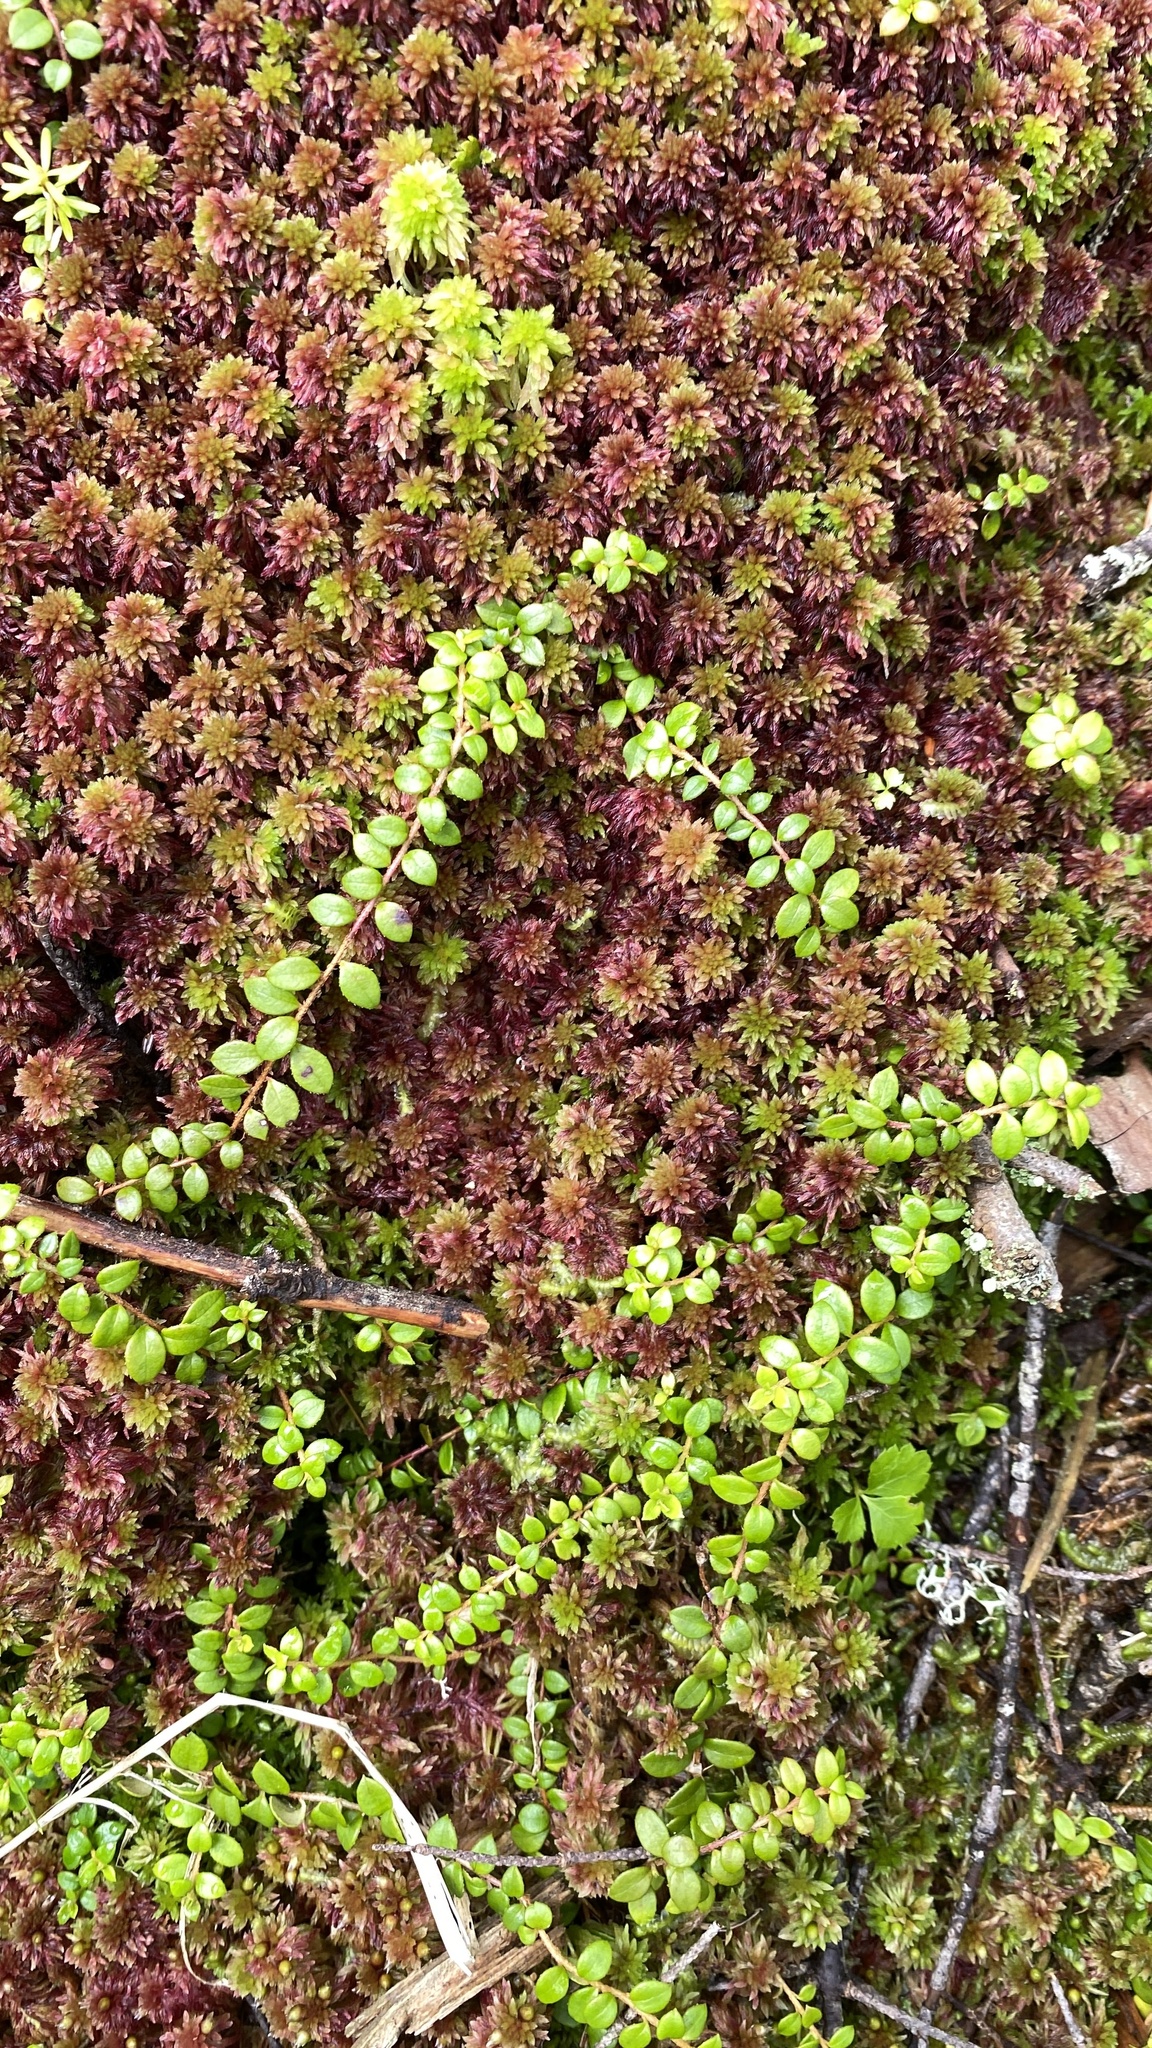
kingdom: Plantae
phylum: Tracheophyta
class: Magnoliopsida
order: Ericales
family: Ericaceae
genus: Gaultheria
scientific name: Gaultheria hispidula
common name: Cancer wintergreen
